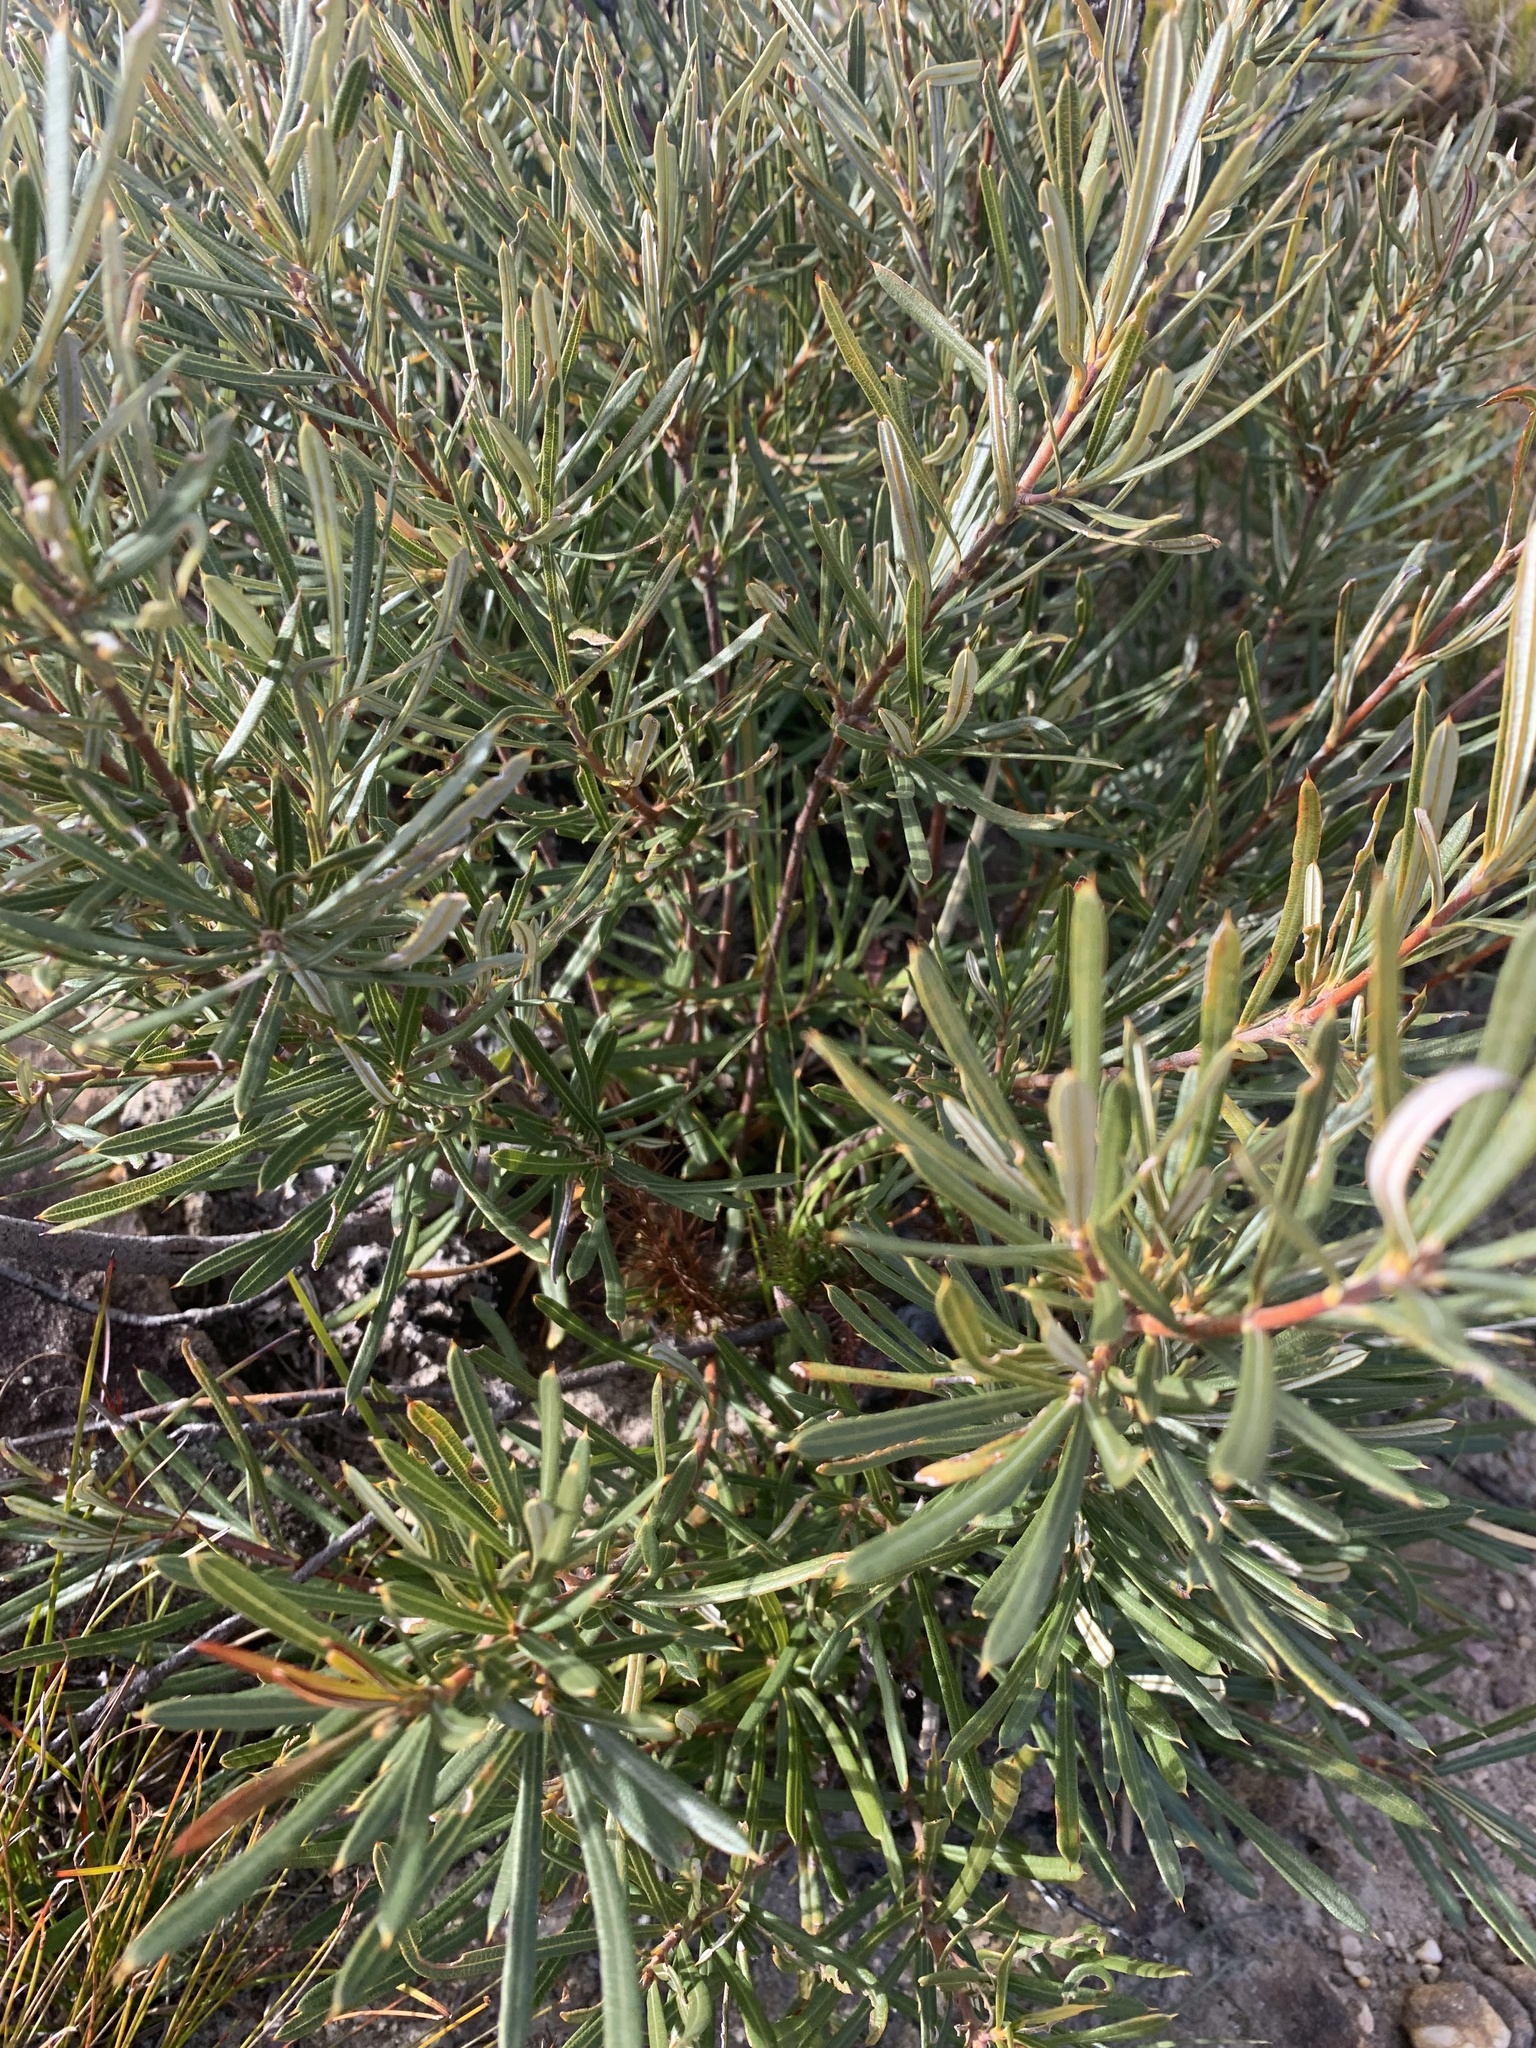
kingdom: Plantae
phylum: Tracheophyta
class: Magnoliopsida
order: Proteales
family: Proteaceae
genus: Lambertia
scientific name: Lambertia formosa
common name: Mountain-devil
